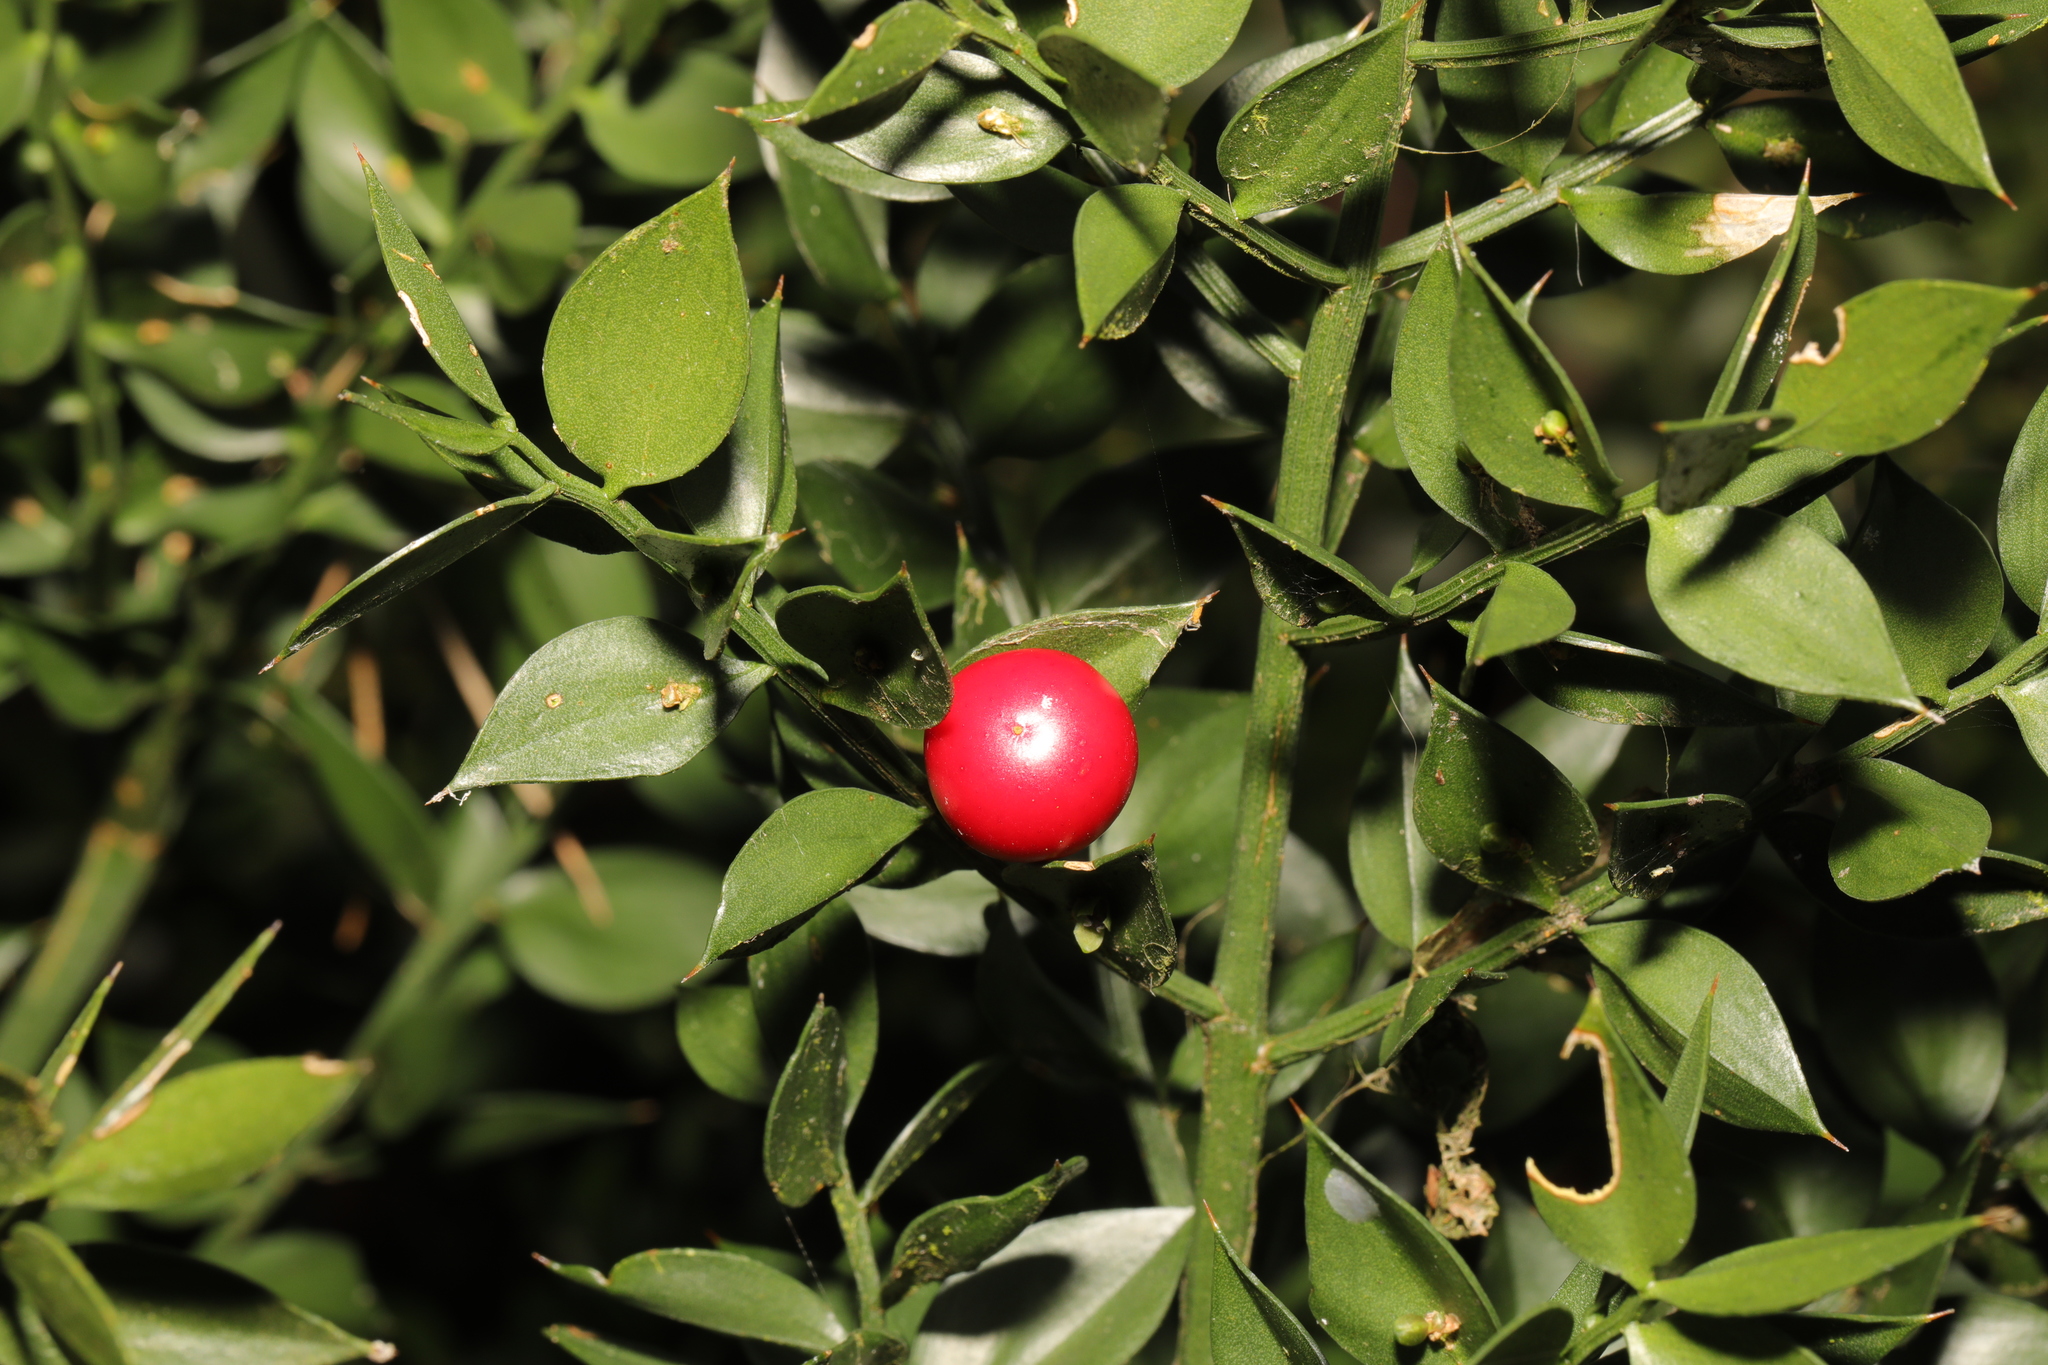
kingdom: Plantae
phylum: Tracheophyta
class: Liliopsida
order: Asparagales
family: Asparagaceae
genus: Ruscus
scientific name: Ruscus aculeatus
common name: Butcher's-broom
